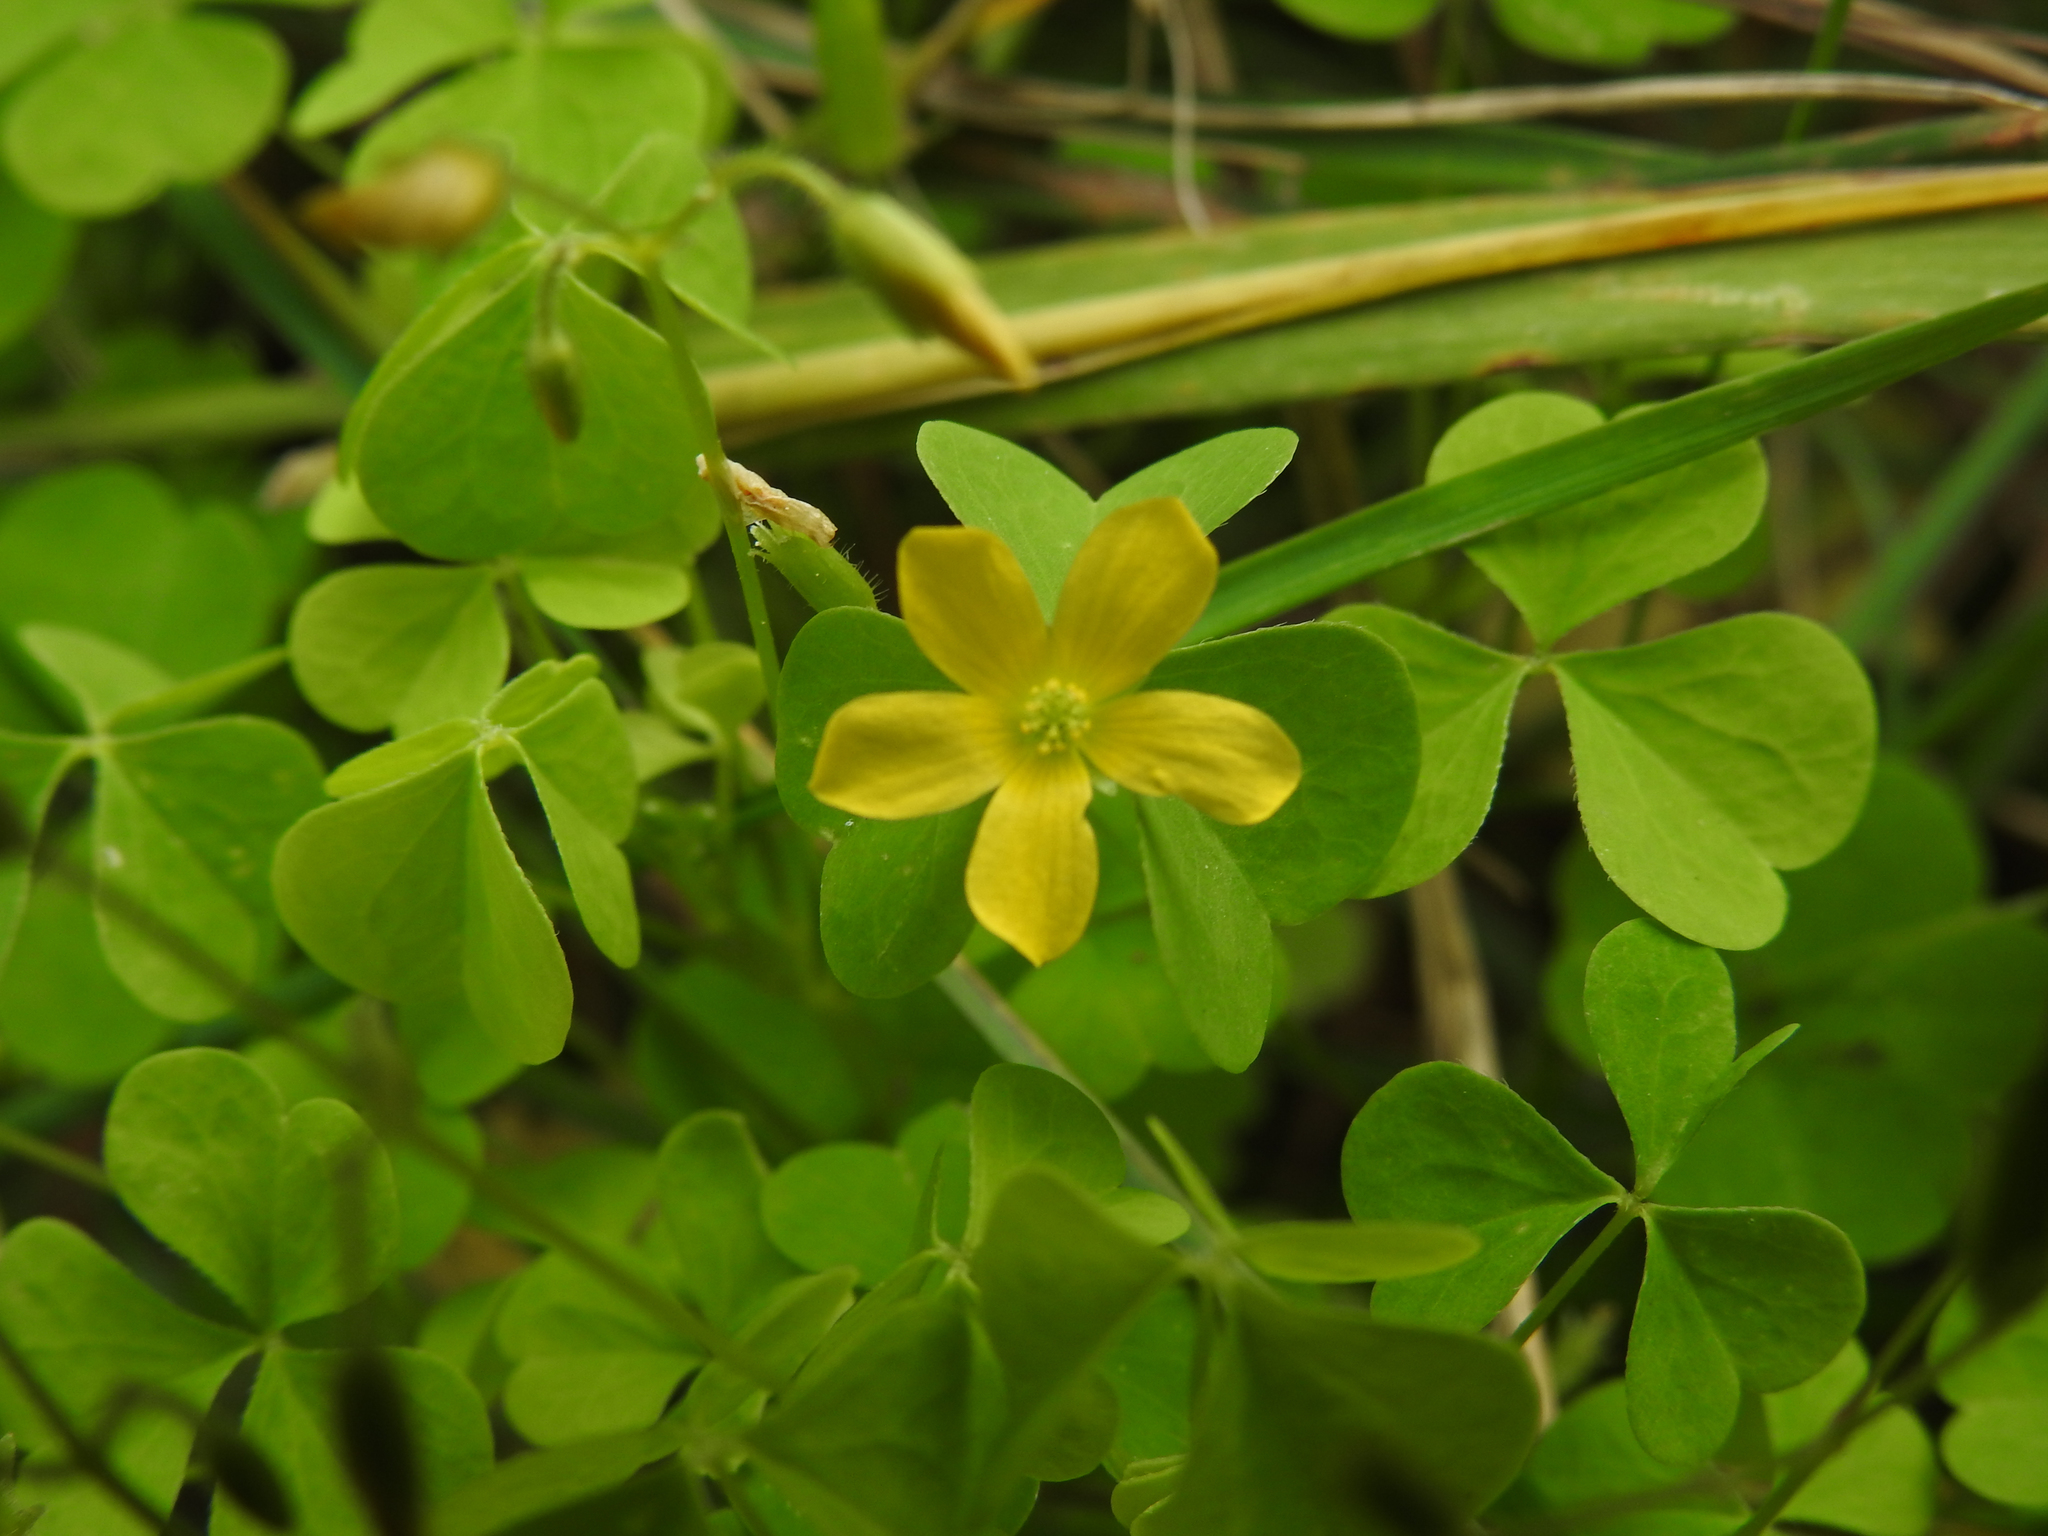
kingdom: Plantae
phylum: Tracheophyta
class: Magnoliopsida
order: Oxalidales
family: Oxalidaceae
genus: Oxalis
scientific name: Oxalis stricta
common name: Upright yellow-sorrel
